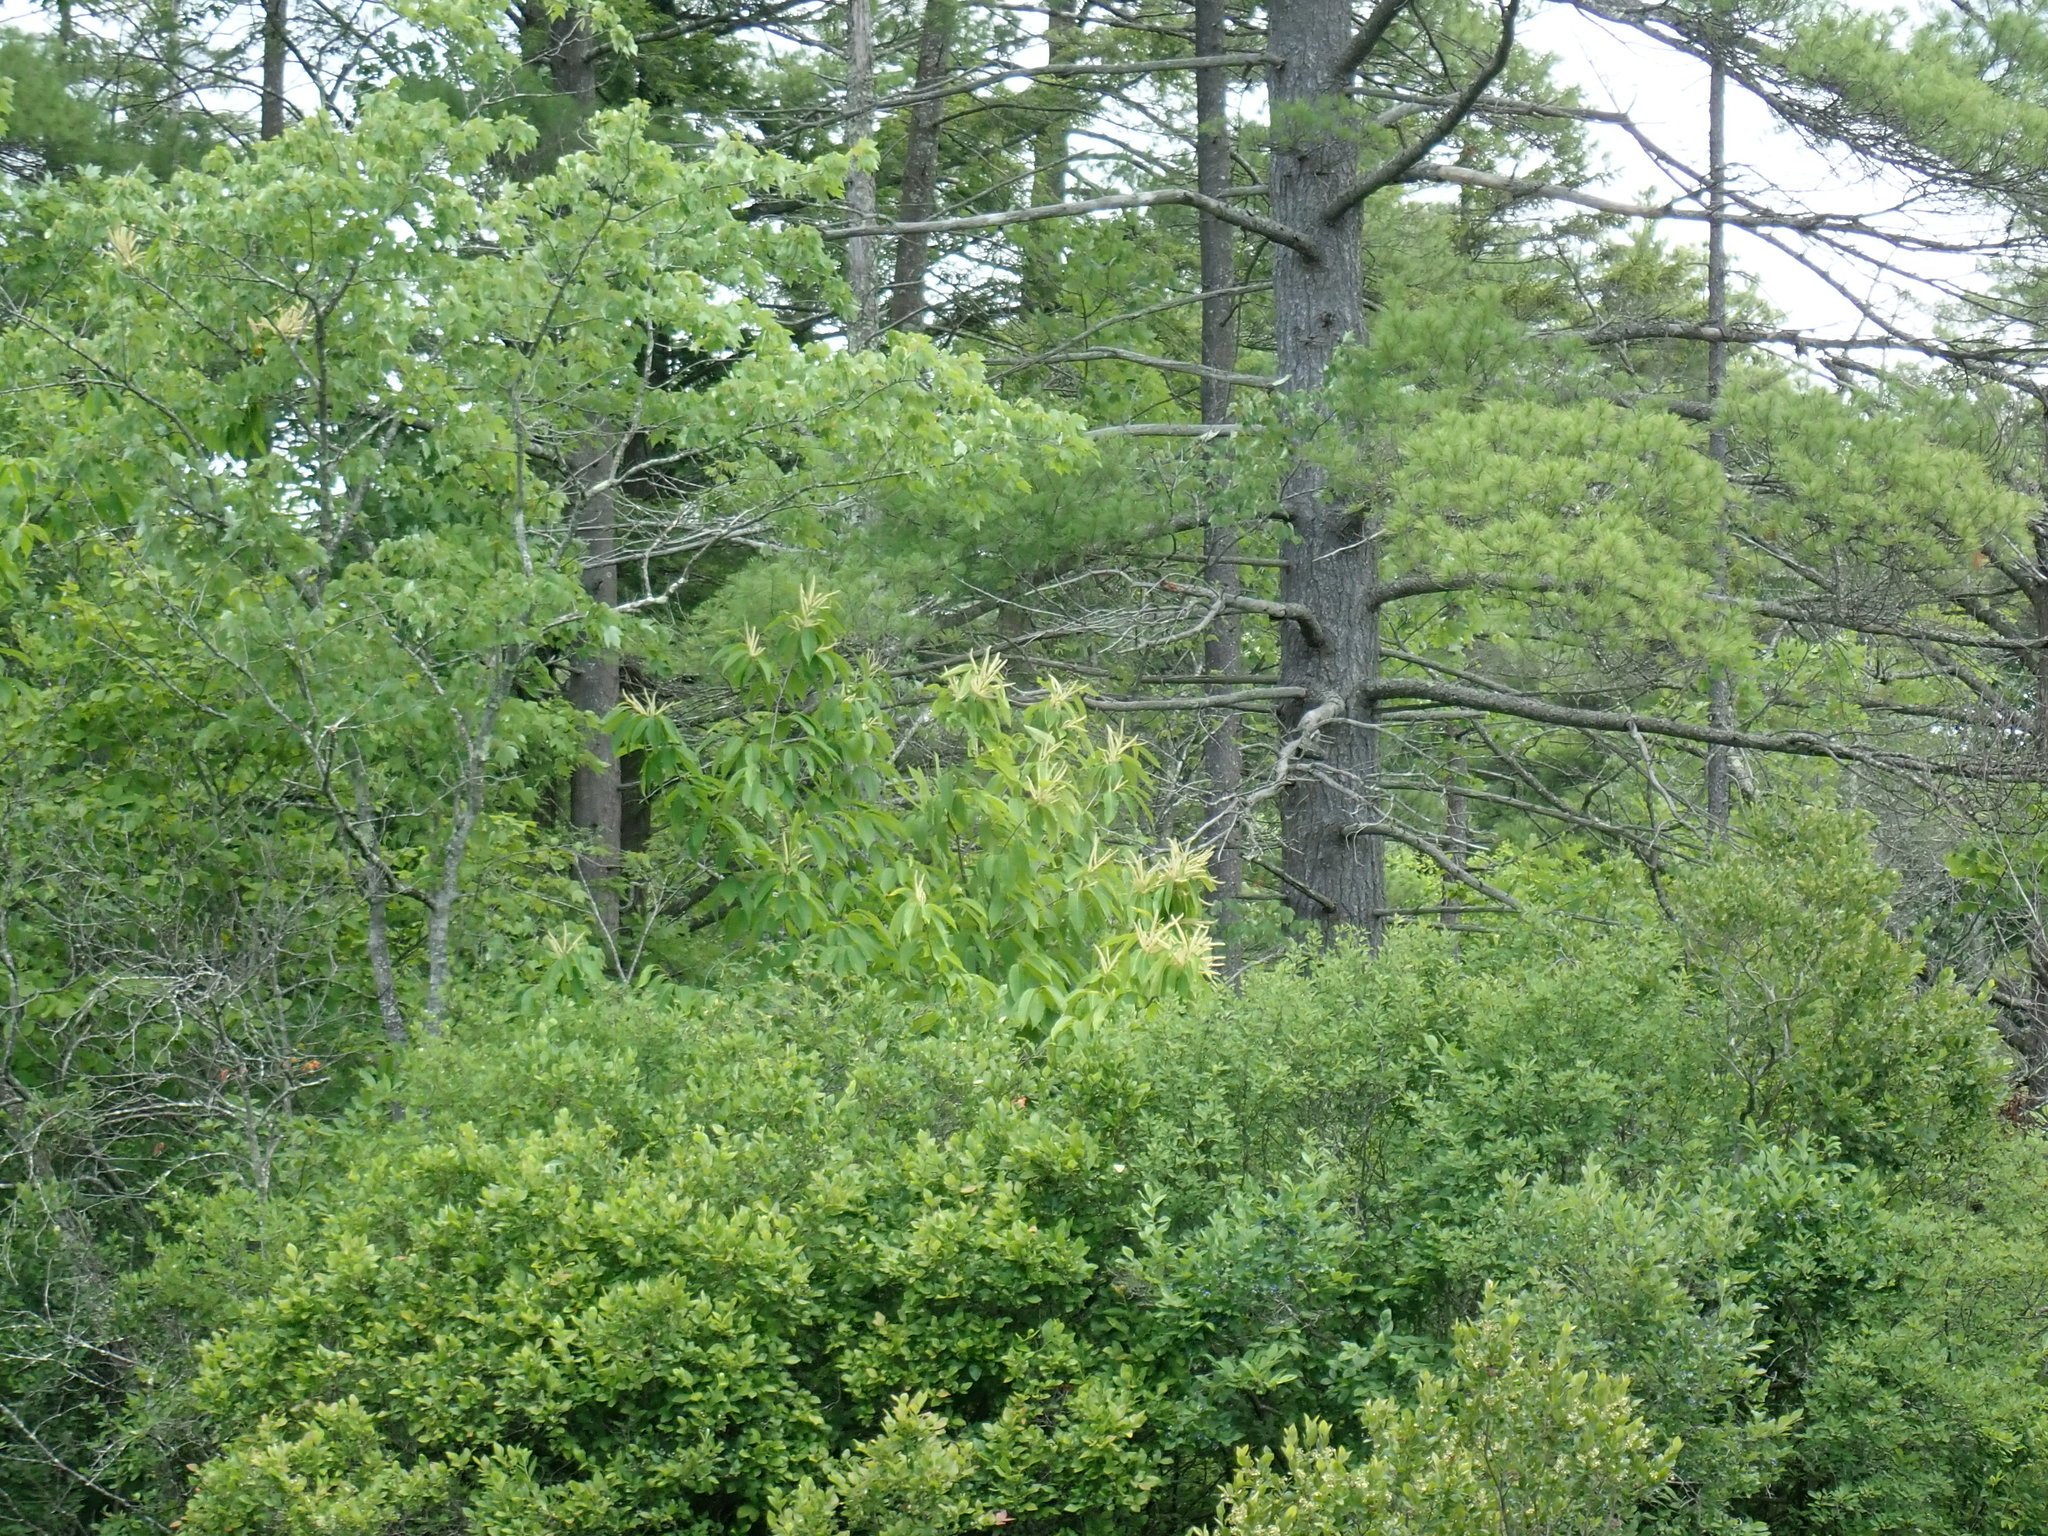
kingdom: Plantae
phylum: Tracheophyta
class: Magnoliopsida
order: Fagales
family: Fagaceae
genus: Castanea
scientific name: Castanea dentata
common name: American chestnut
